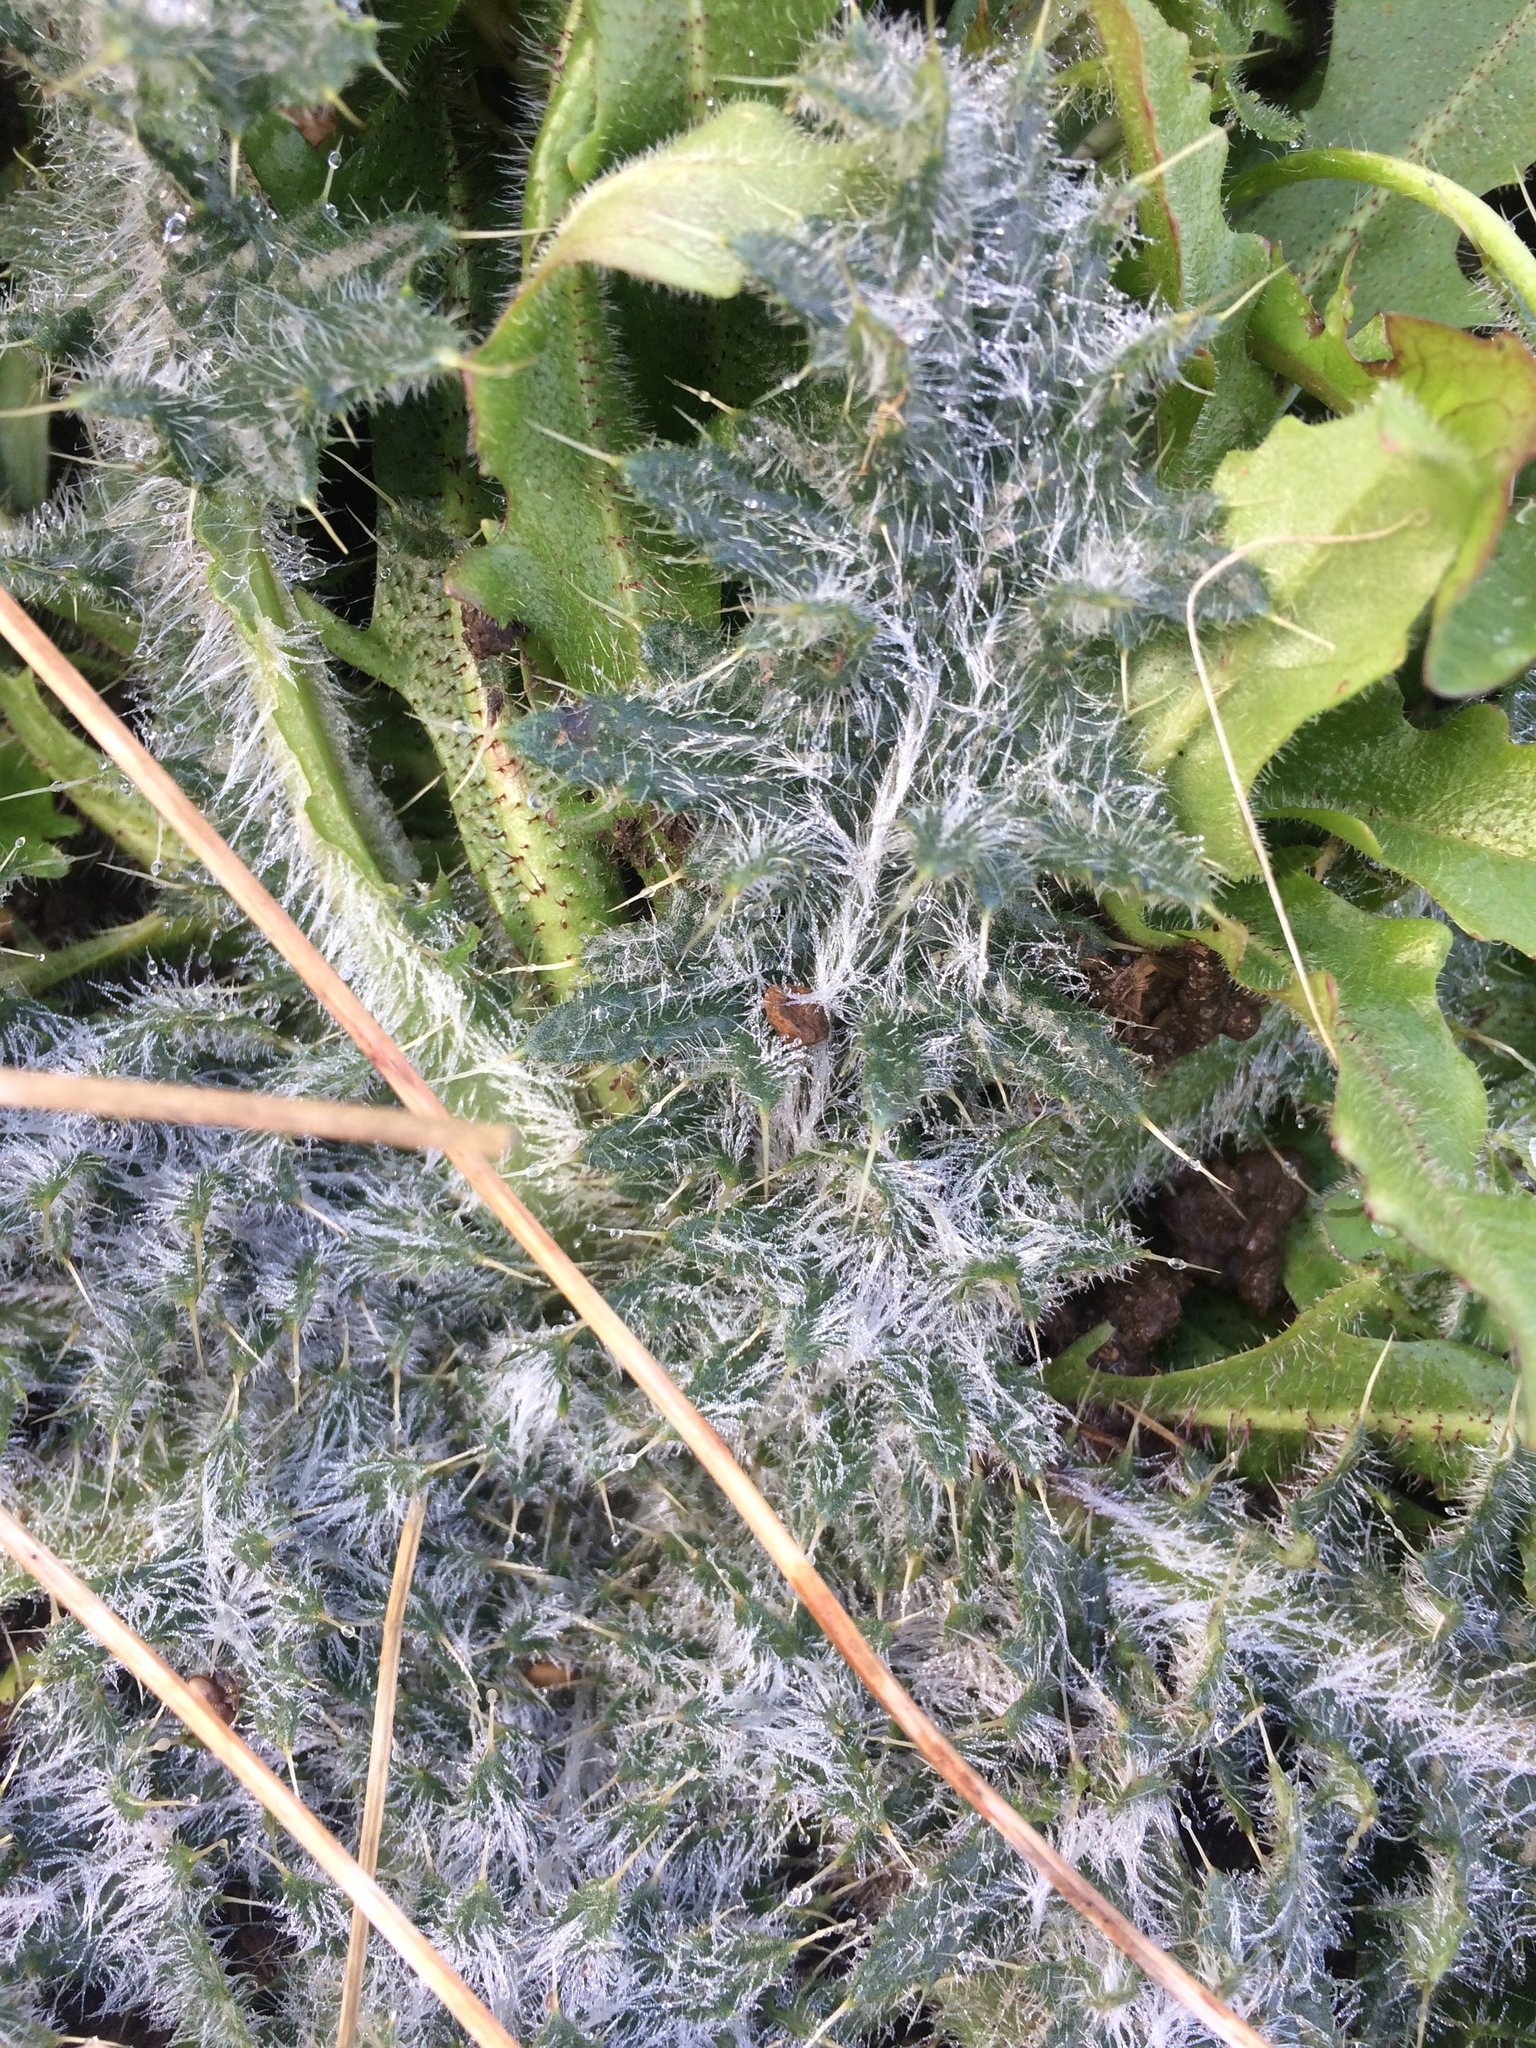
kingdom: Plantae
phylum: Tracheophyta
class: Magnoliopsida
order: Asterales
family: Asteraceae
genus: Cirsium
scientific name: Cirsium vulgare
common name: Bull thistle
